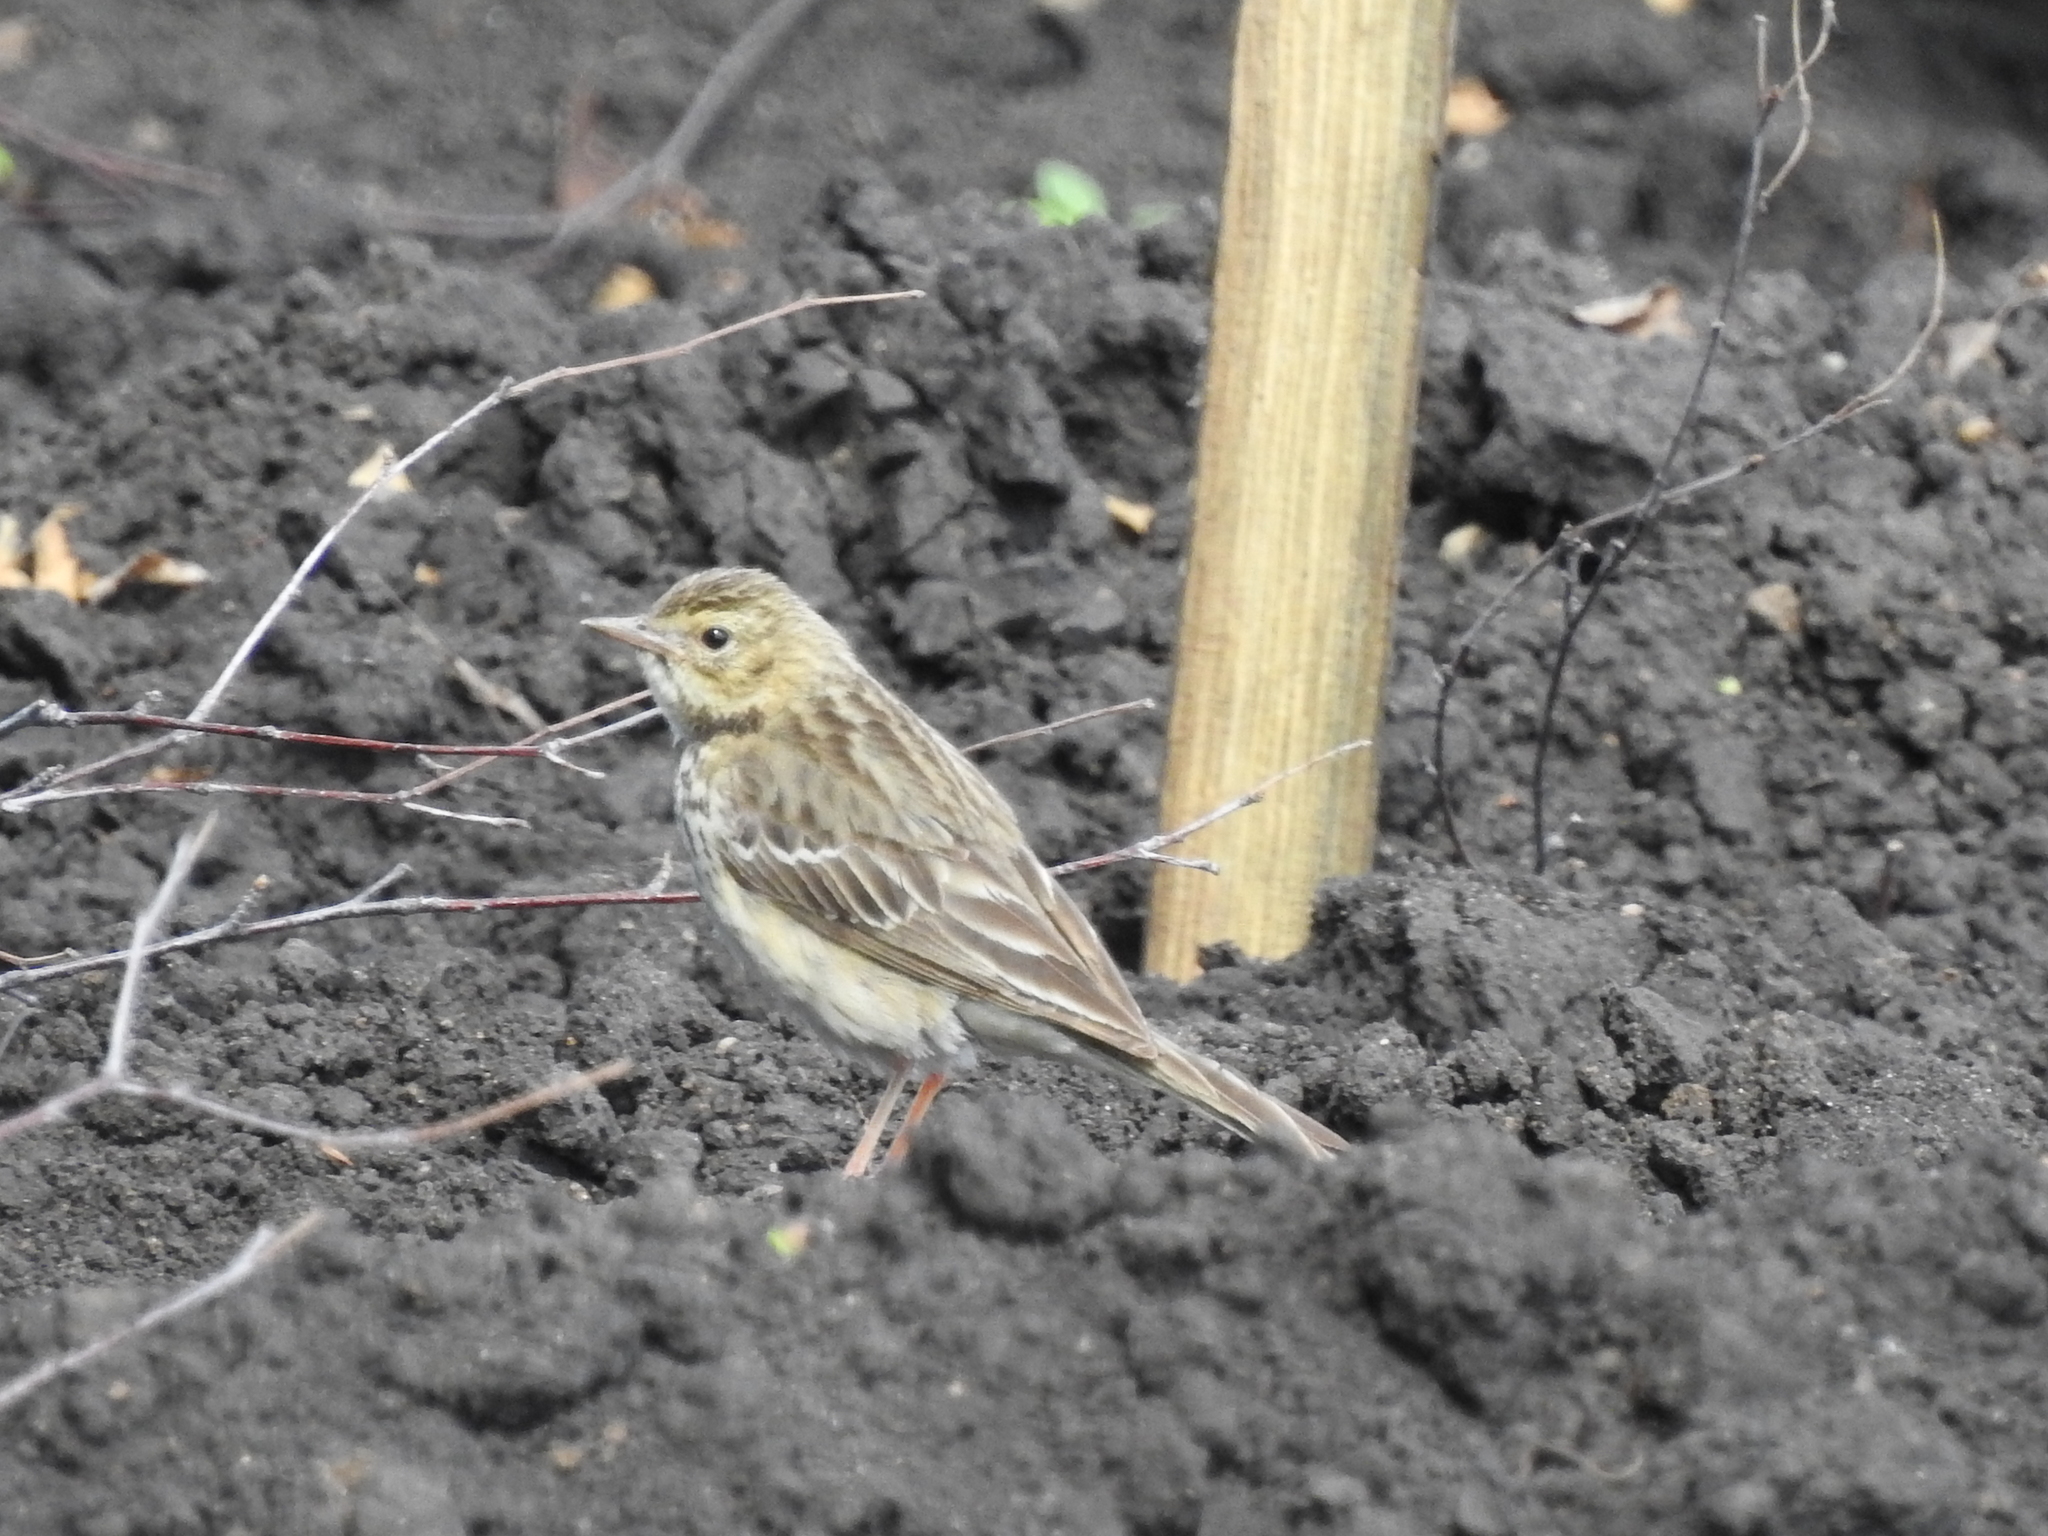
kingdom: Animalia
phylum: Chordata
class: Aves
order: Passeriformes
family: Motacillidae
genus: Anthus
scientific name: Anthus trivialis
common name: Tree pipit
